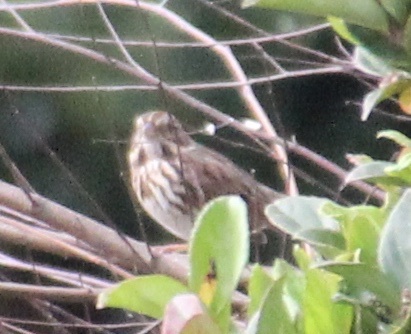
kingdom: Animalia
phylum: Chordata
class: Aves
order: Passeriformes
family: Passerellidae
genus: Melospiza
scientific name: Melospiza melodia
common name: Song sparrow
